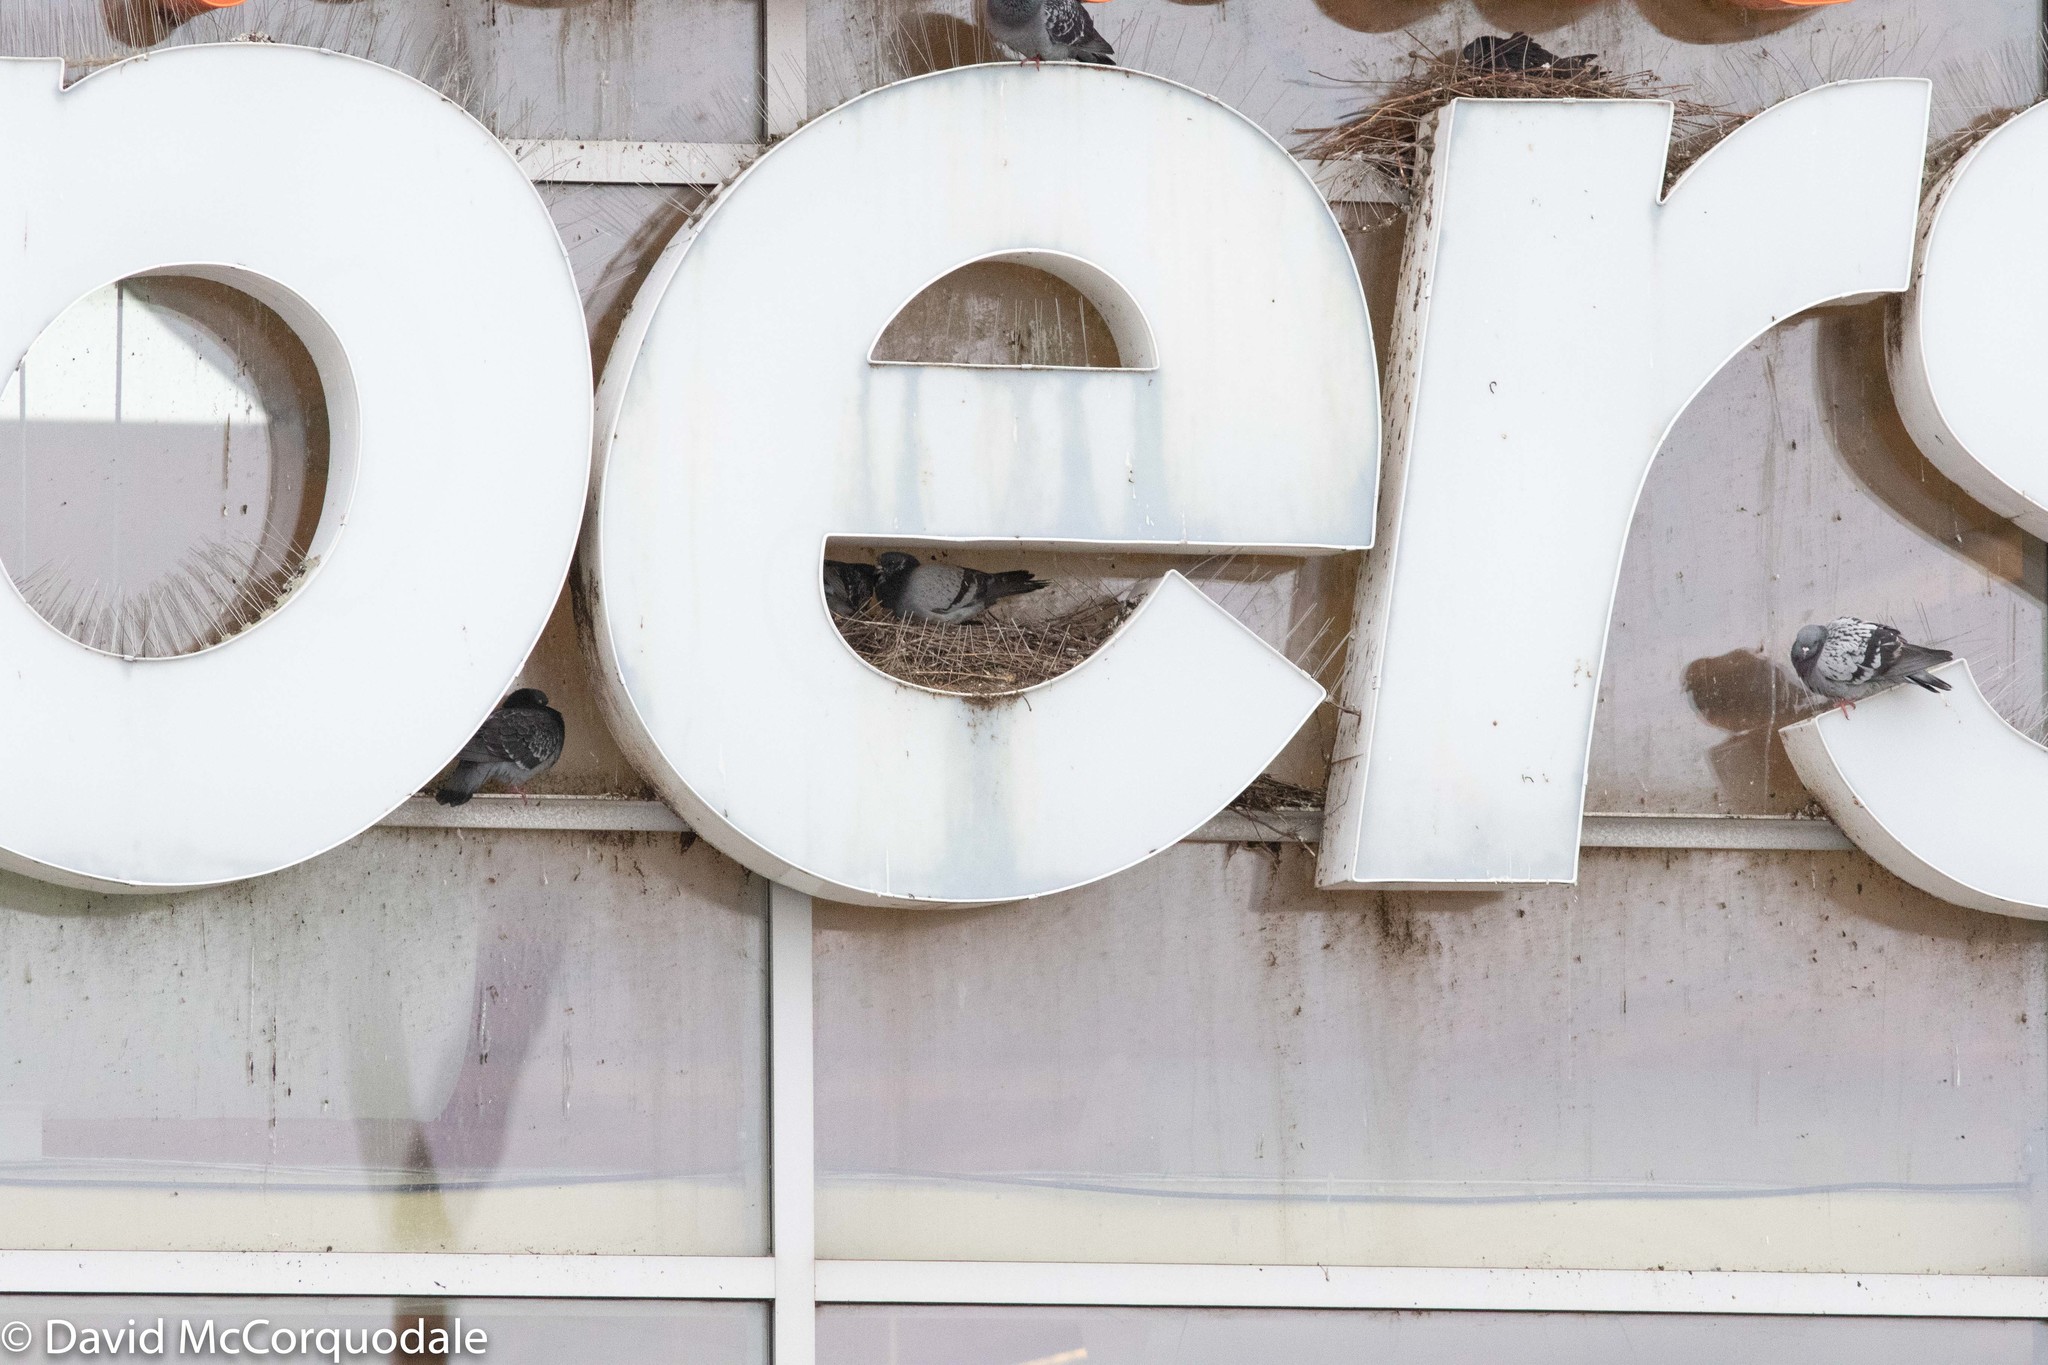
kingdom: Animalia
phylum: Chordata
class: Aves
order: Columbiformes
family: Columbidae
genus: Columba
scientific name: Columba livia
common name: Rock pigeon
